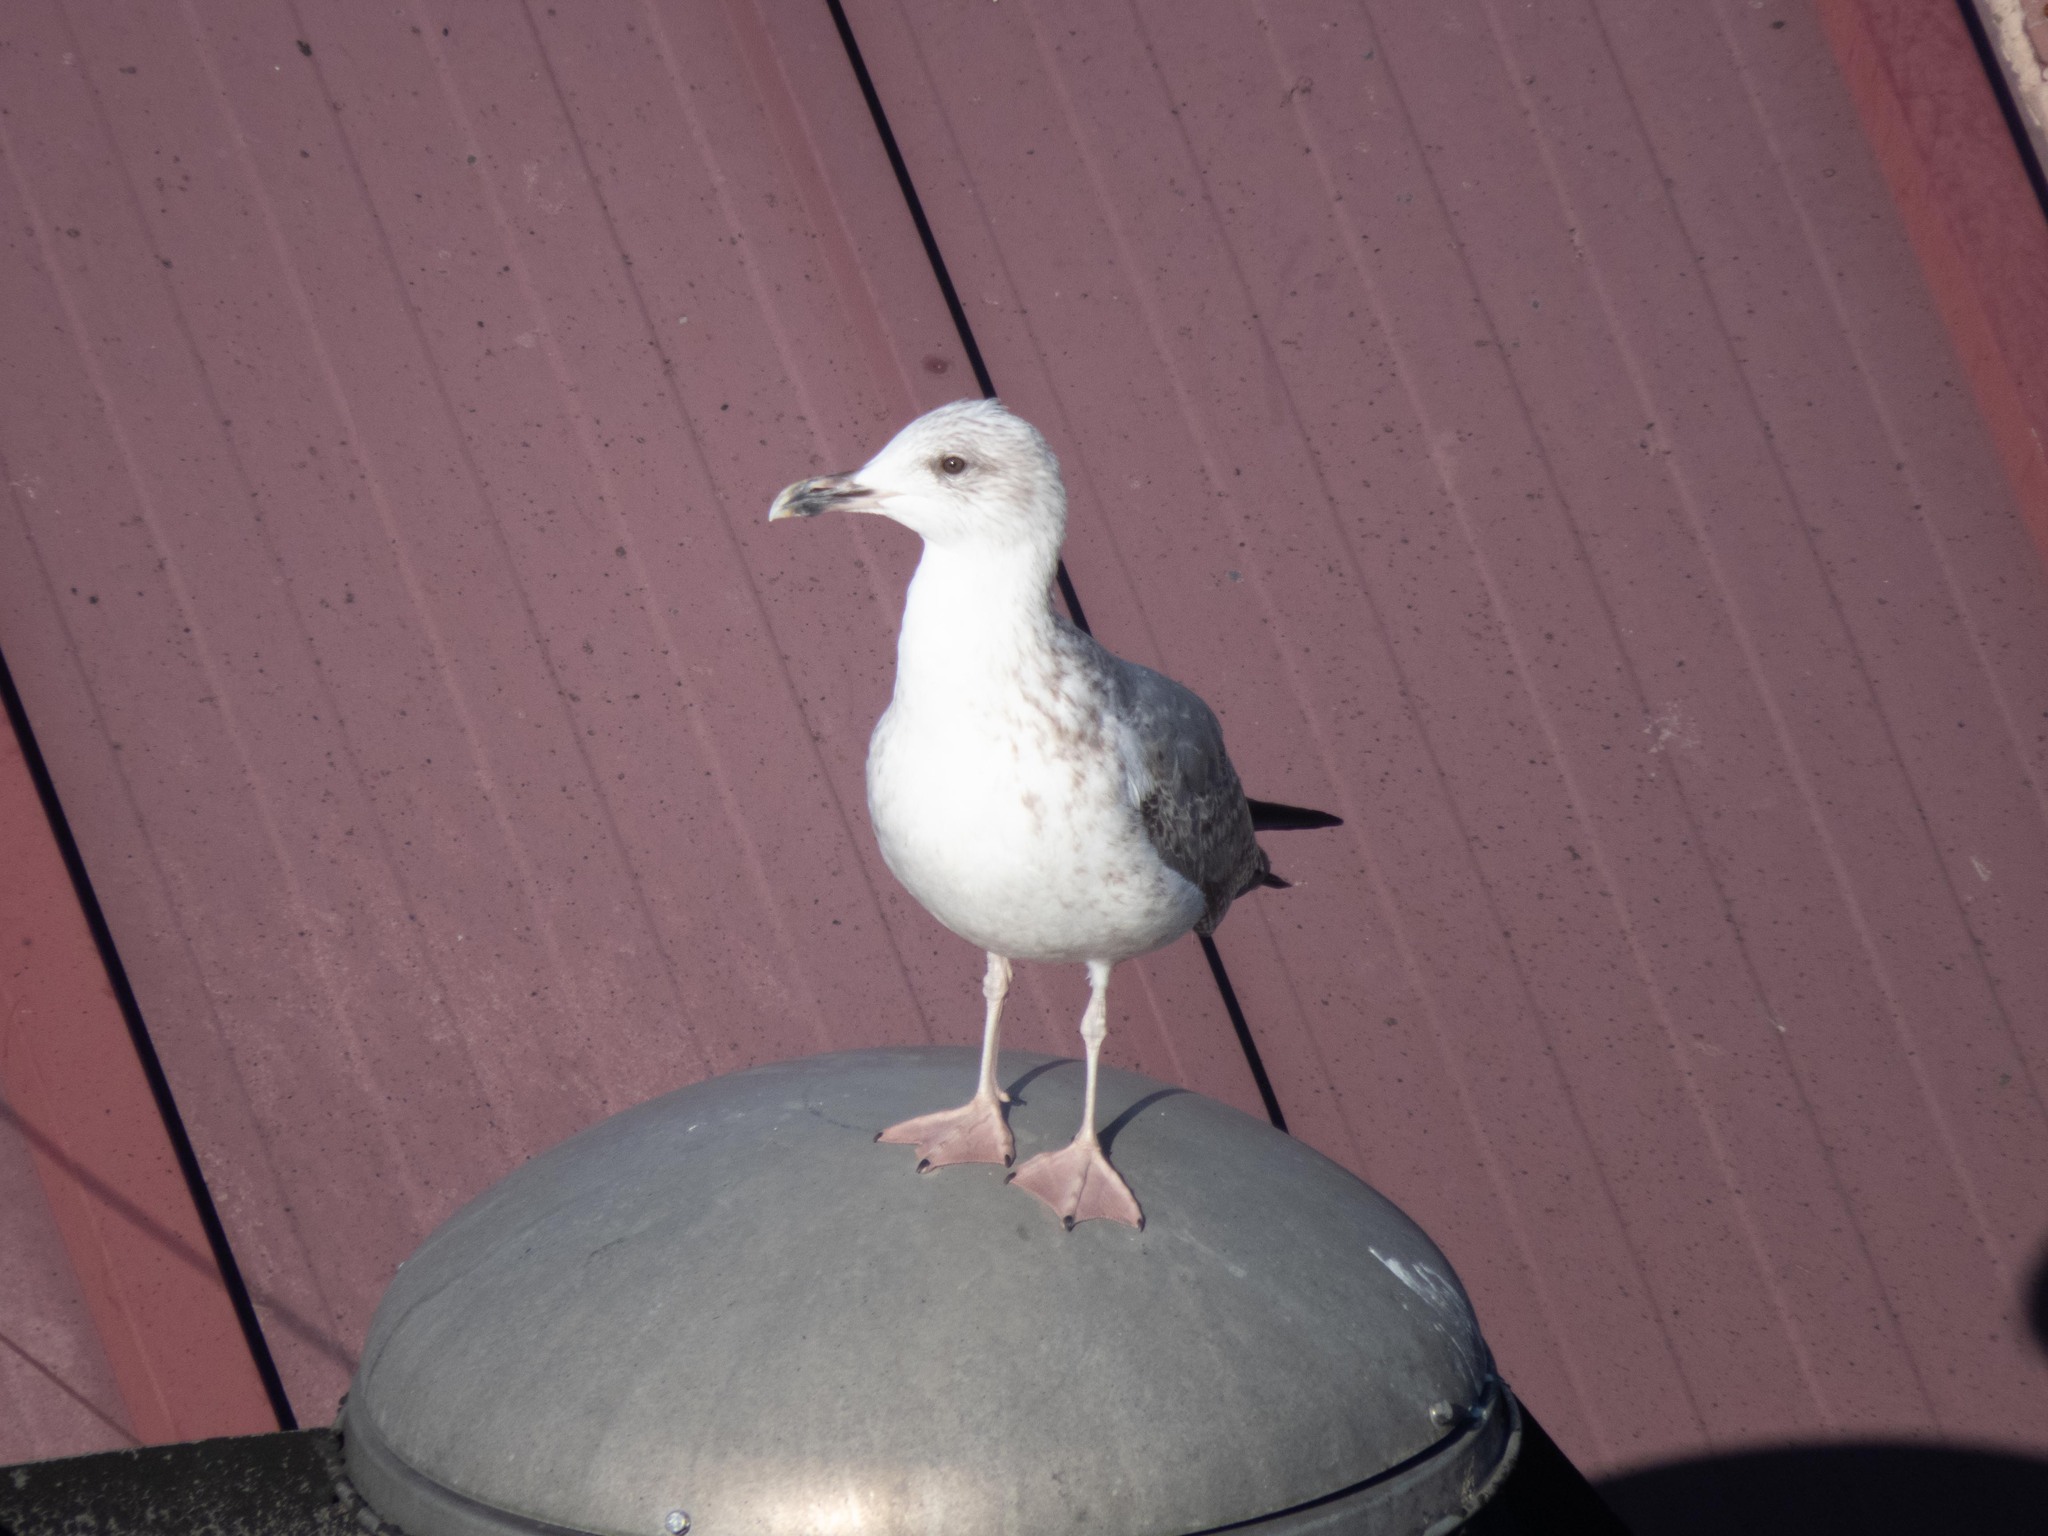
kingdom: Animalia
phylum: Chordata
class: Aves
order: Charadriiformes
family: Laridae
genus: Larus
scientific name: Larus michahellis
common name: Yellow-legged gull
